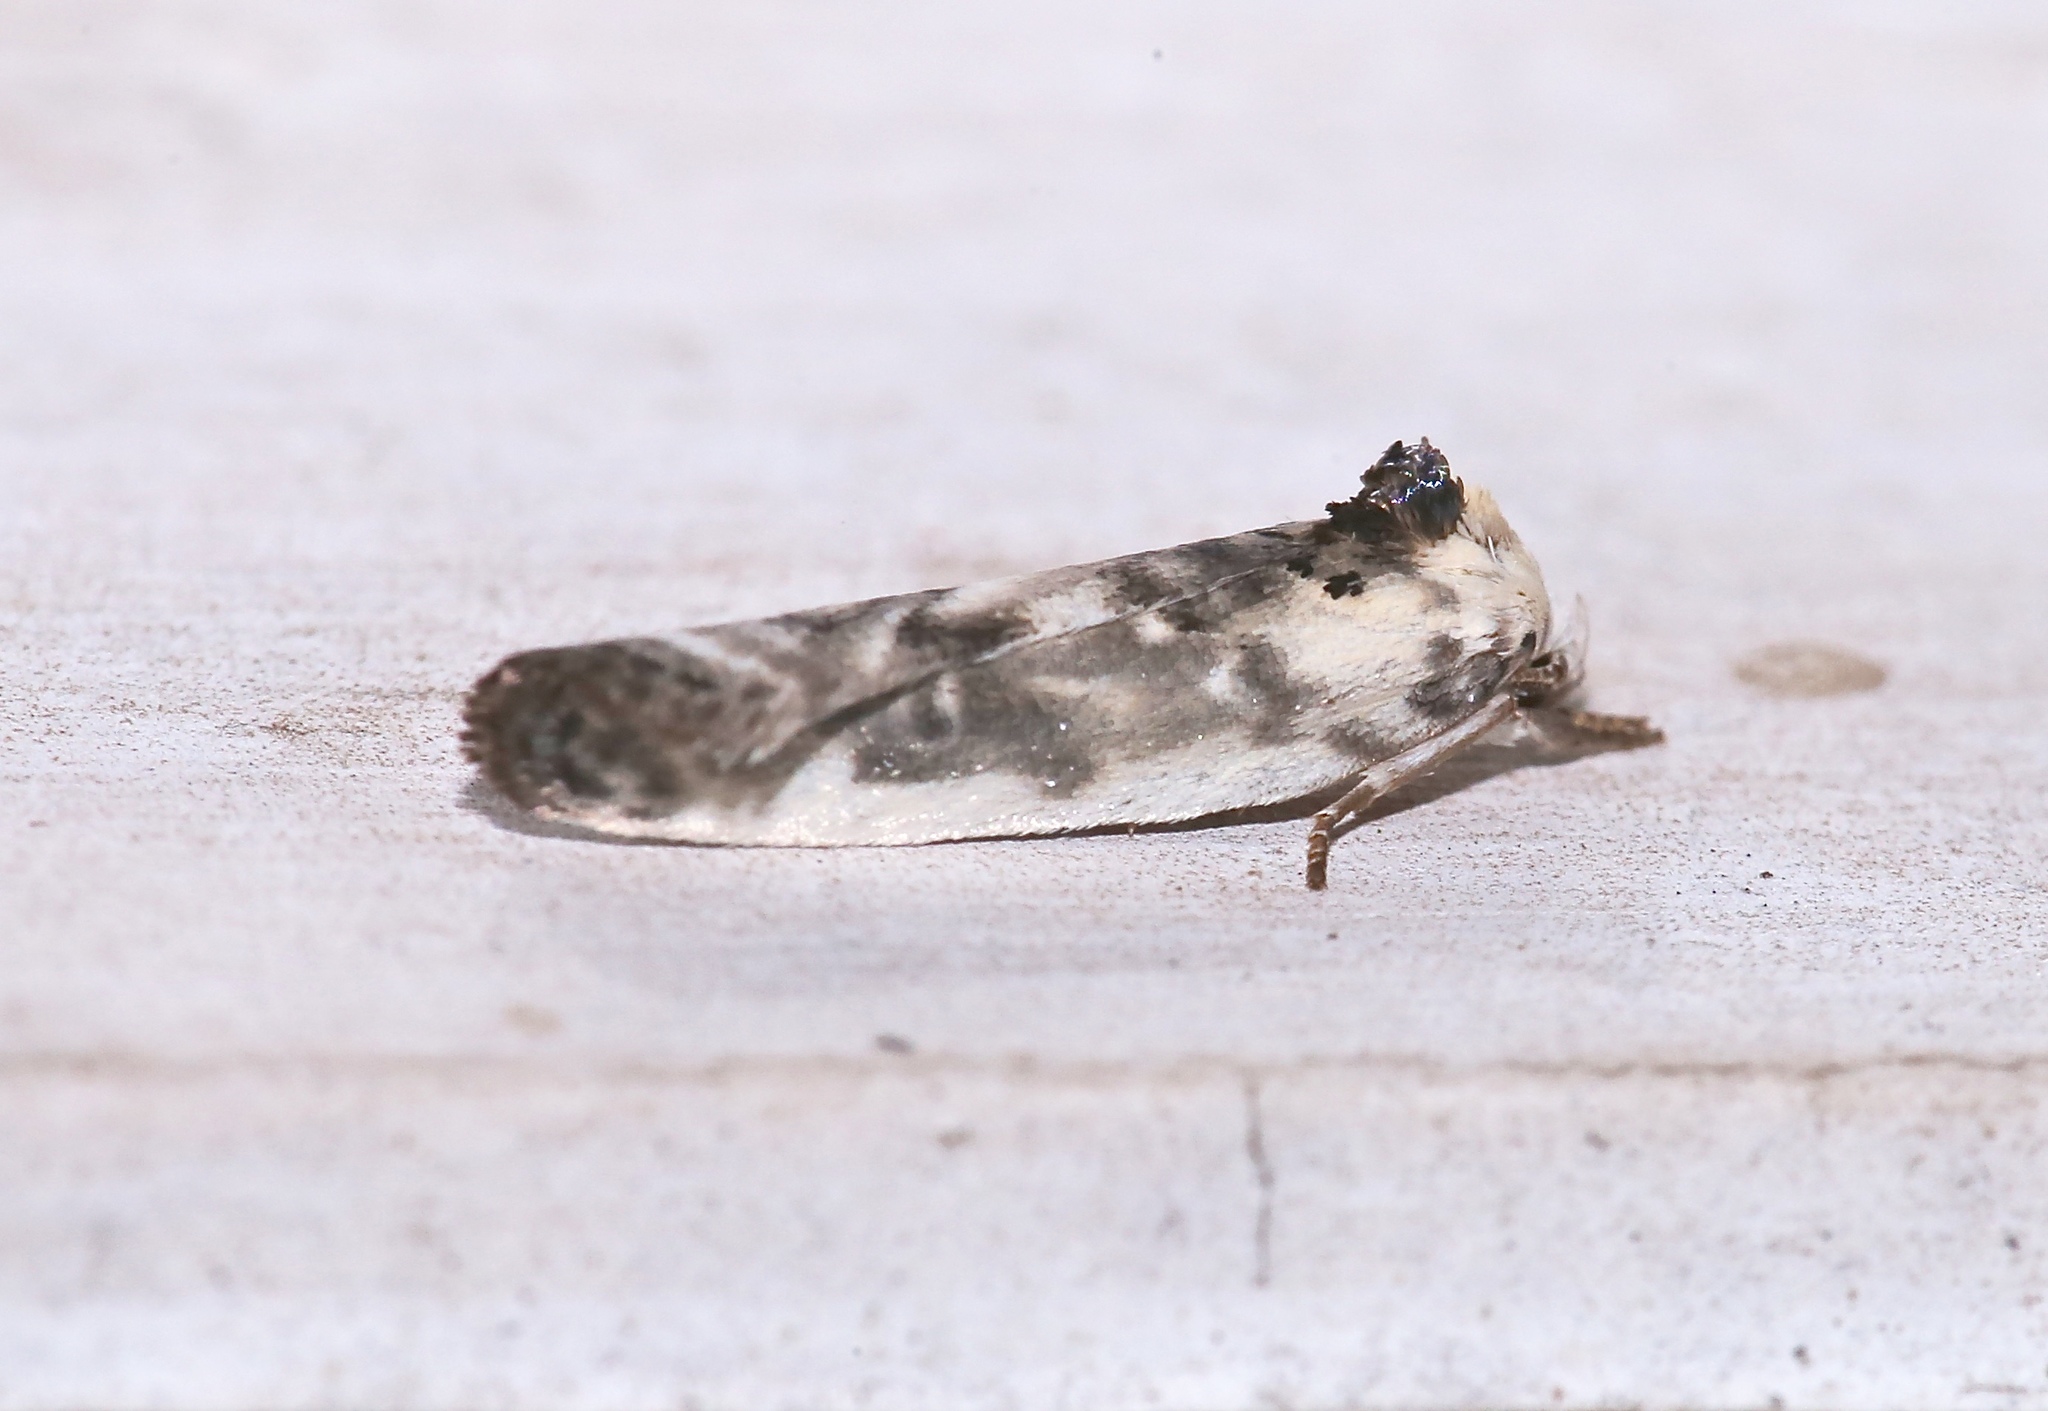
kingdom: Animalia
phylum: Arthropoda
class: Insecta
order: Lepidoptera
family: Depressariidae
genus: Antaeotricha
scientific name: Antaeotricha schlaegeri
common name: Schlaeger's fruitworm moth
